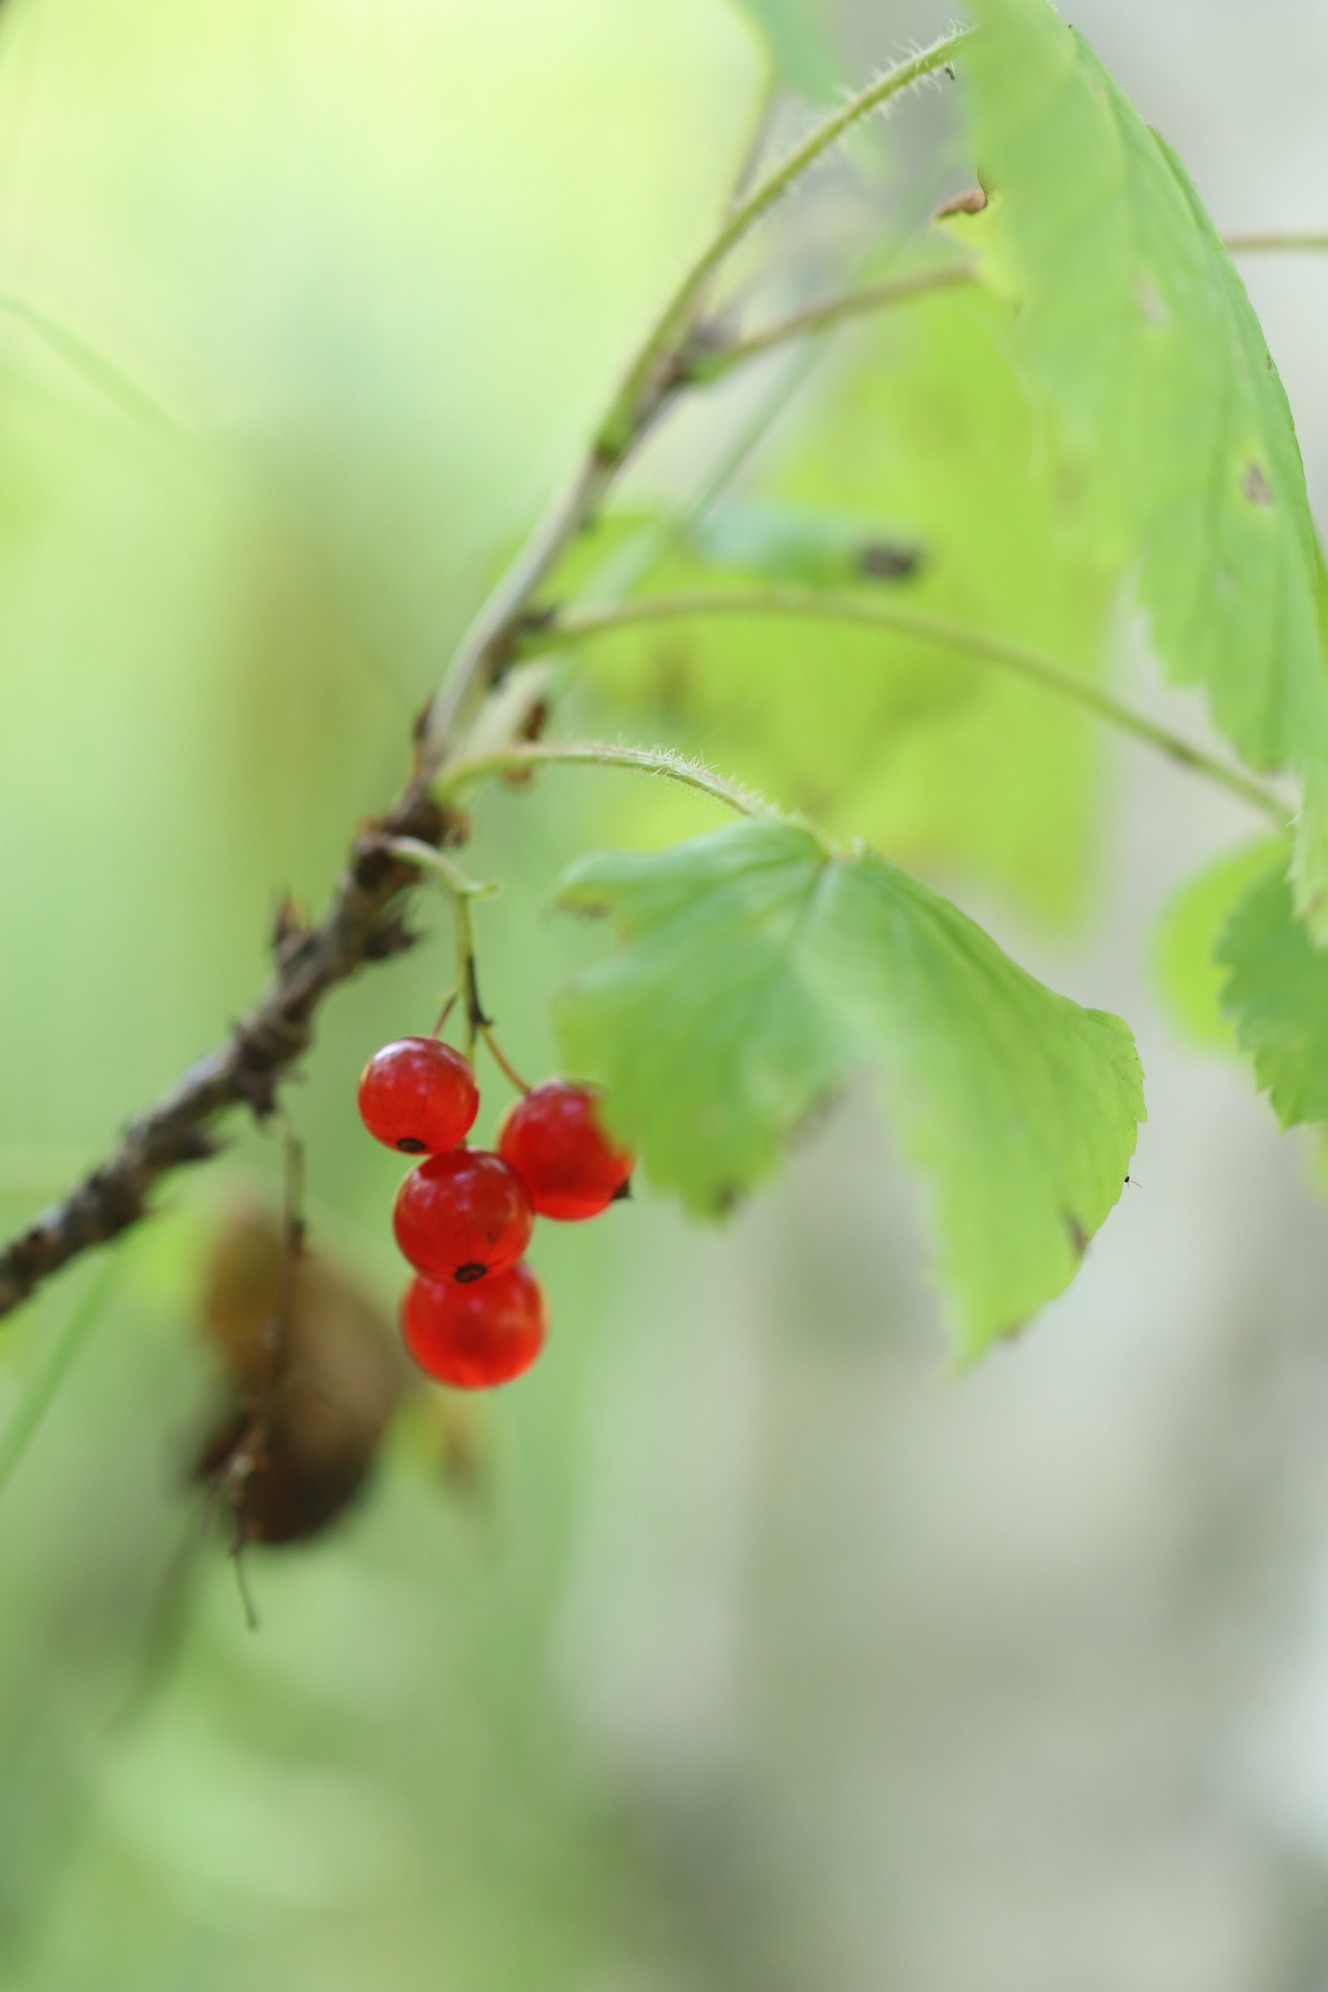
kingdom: Plantae
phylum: Tracheophyta
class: Magnoliopsida
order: Saxifragales
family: Grossulariaceae
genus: Ribes
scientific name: Ribes rubrum
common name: Red currant
